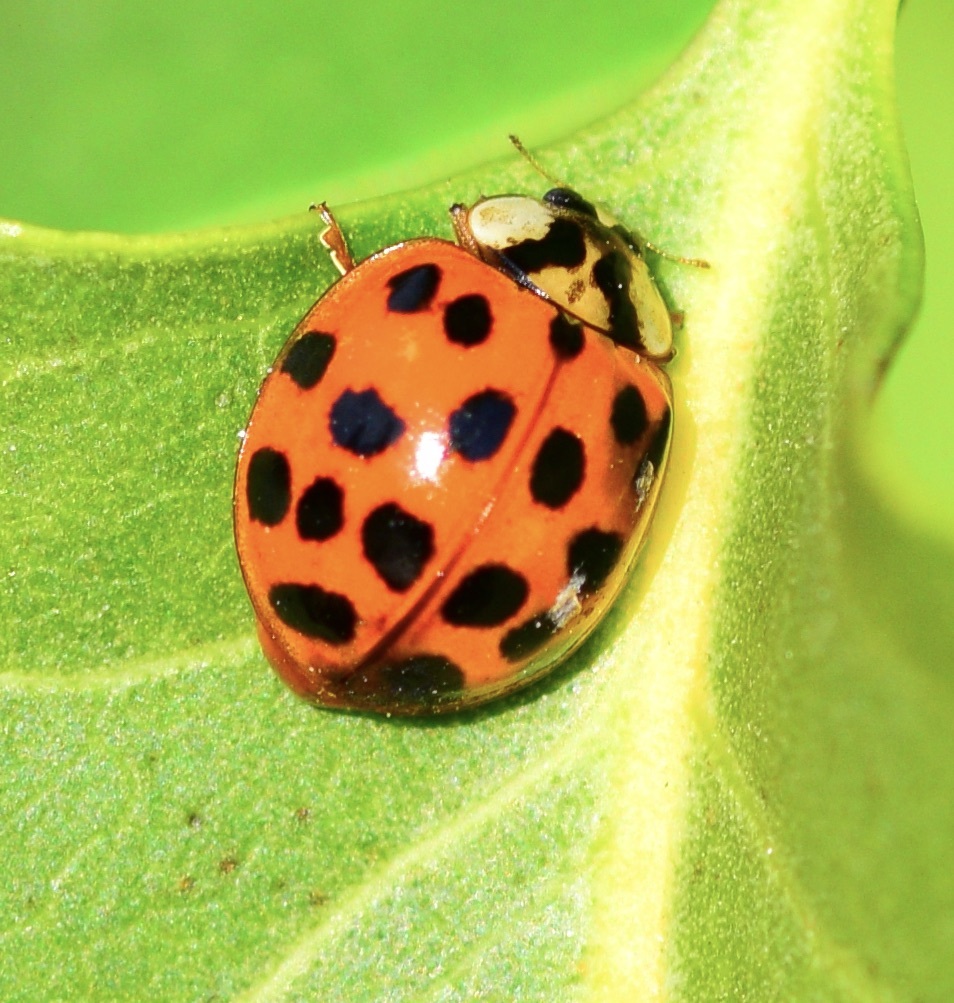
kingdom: Animalia
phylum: Arthropoda
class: Insecta
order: Coleoptera
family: Coccinellidae
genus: Harmonia
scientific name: Harmonia axyridis
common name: Harlequin ladybird
